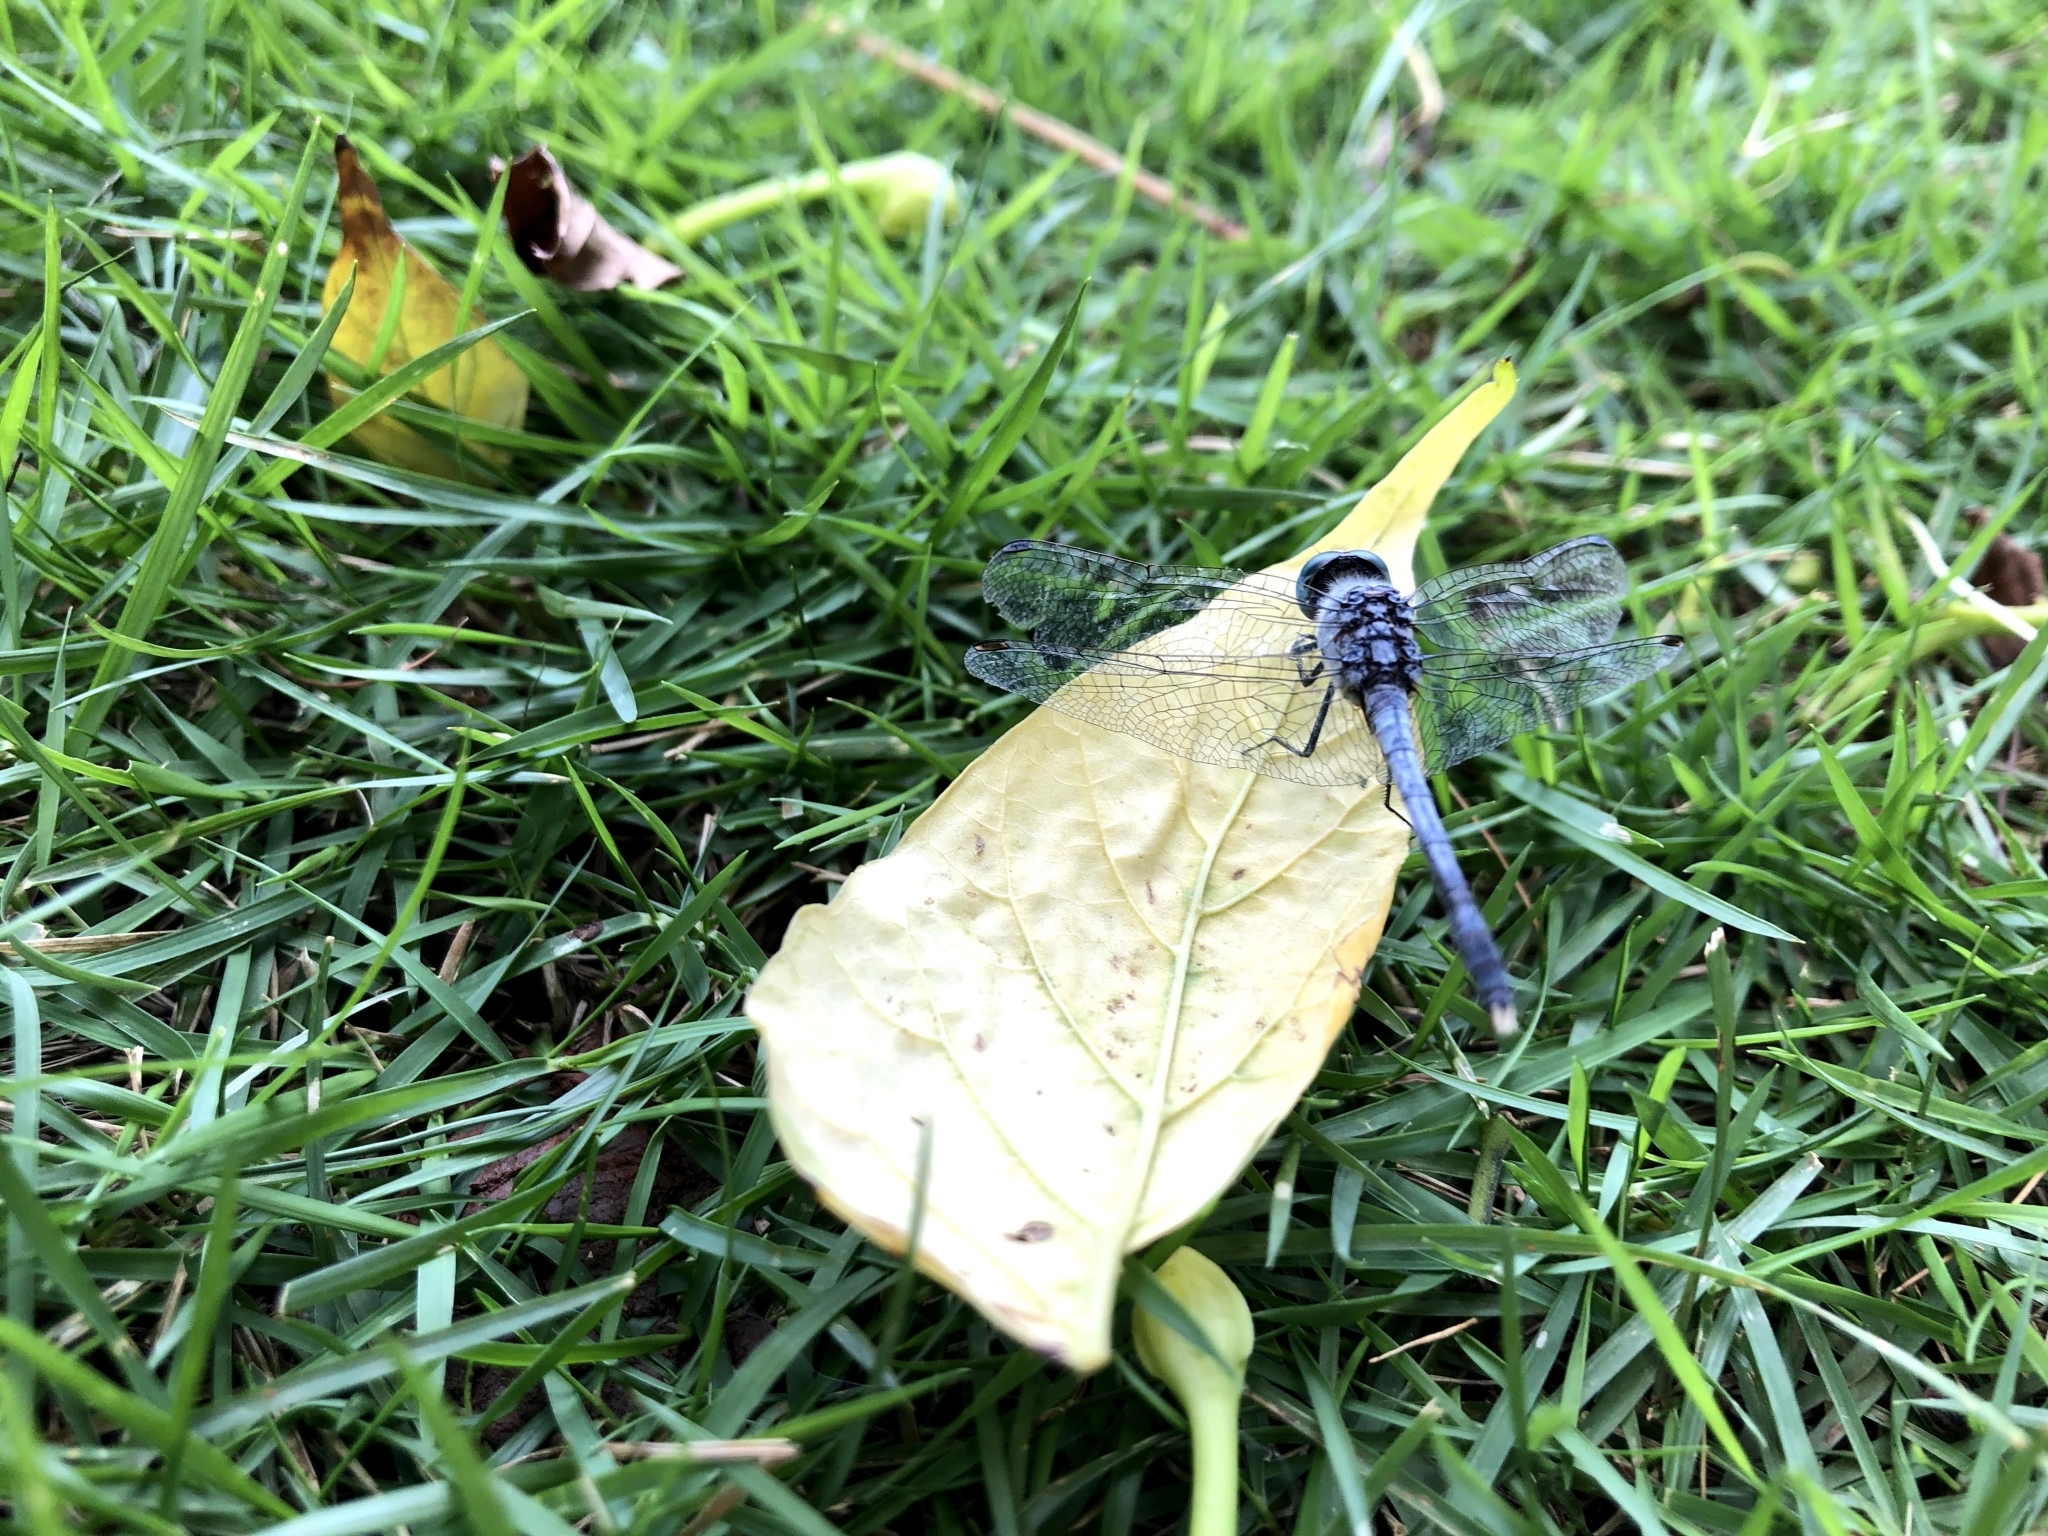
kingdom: Animalia
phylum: Arthropoda
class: Insecta
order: Odonata
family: Libellulidae
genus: Diplacodes
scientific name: Diplacodes trivialis
